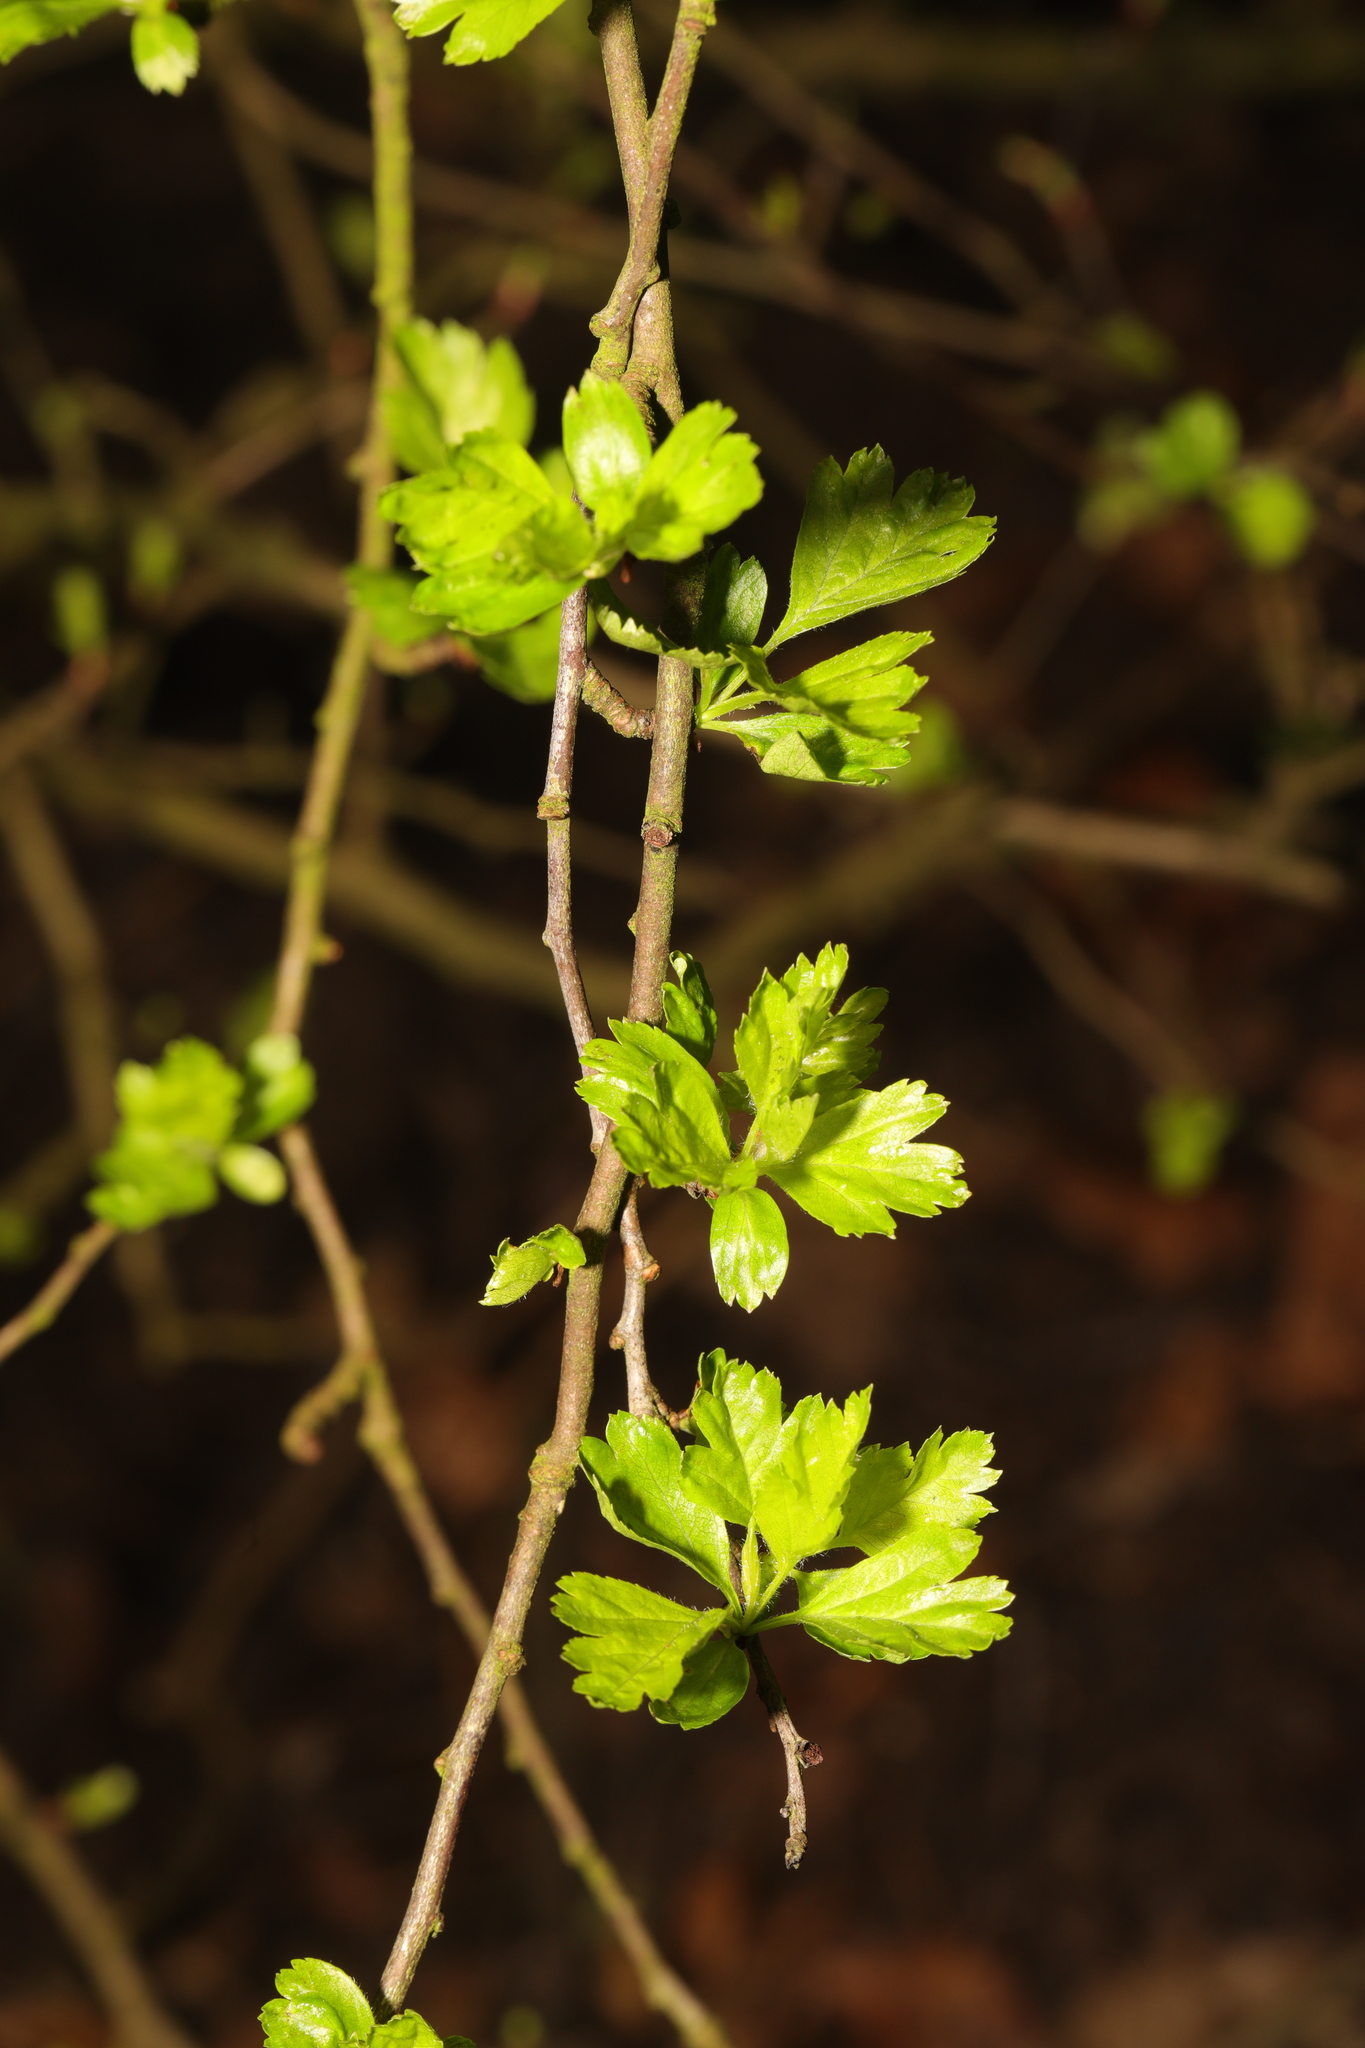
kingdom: Plantae
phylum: Tracheophyta
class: Magnoliopsida
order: Rosales
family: Rosaceae
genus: Crataegus
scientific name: Crataegus monogyna
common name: Hawthorn
